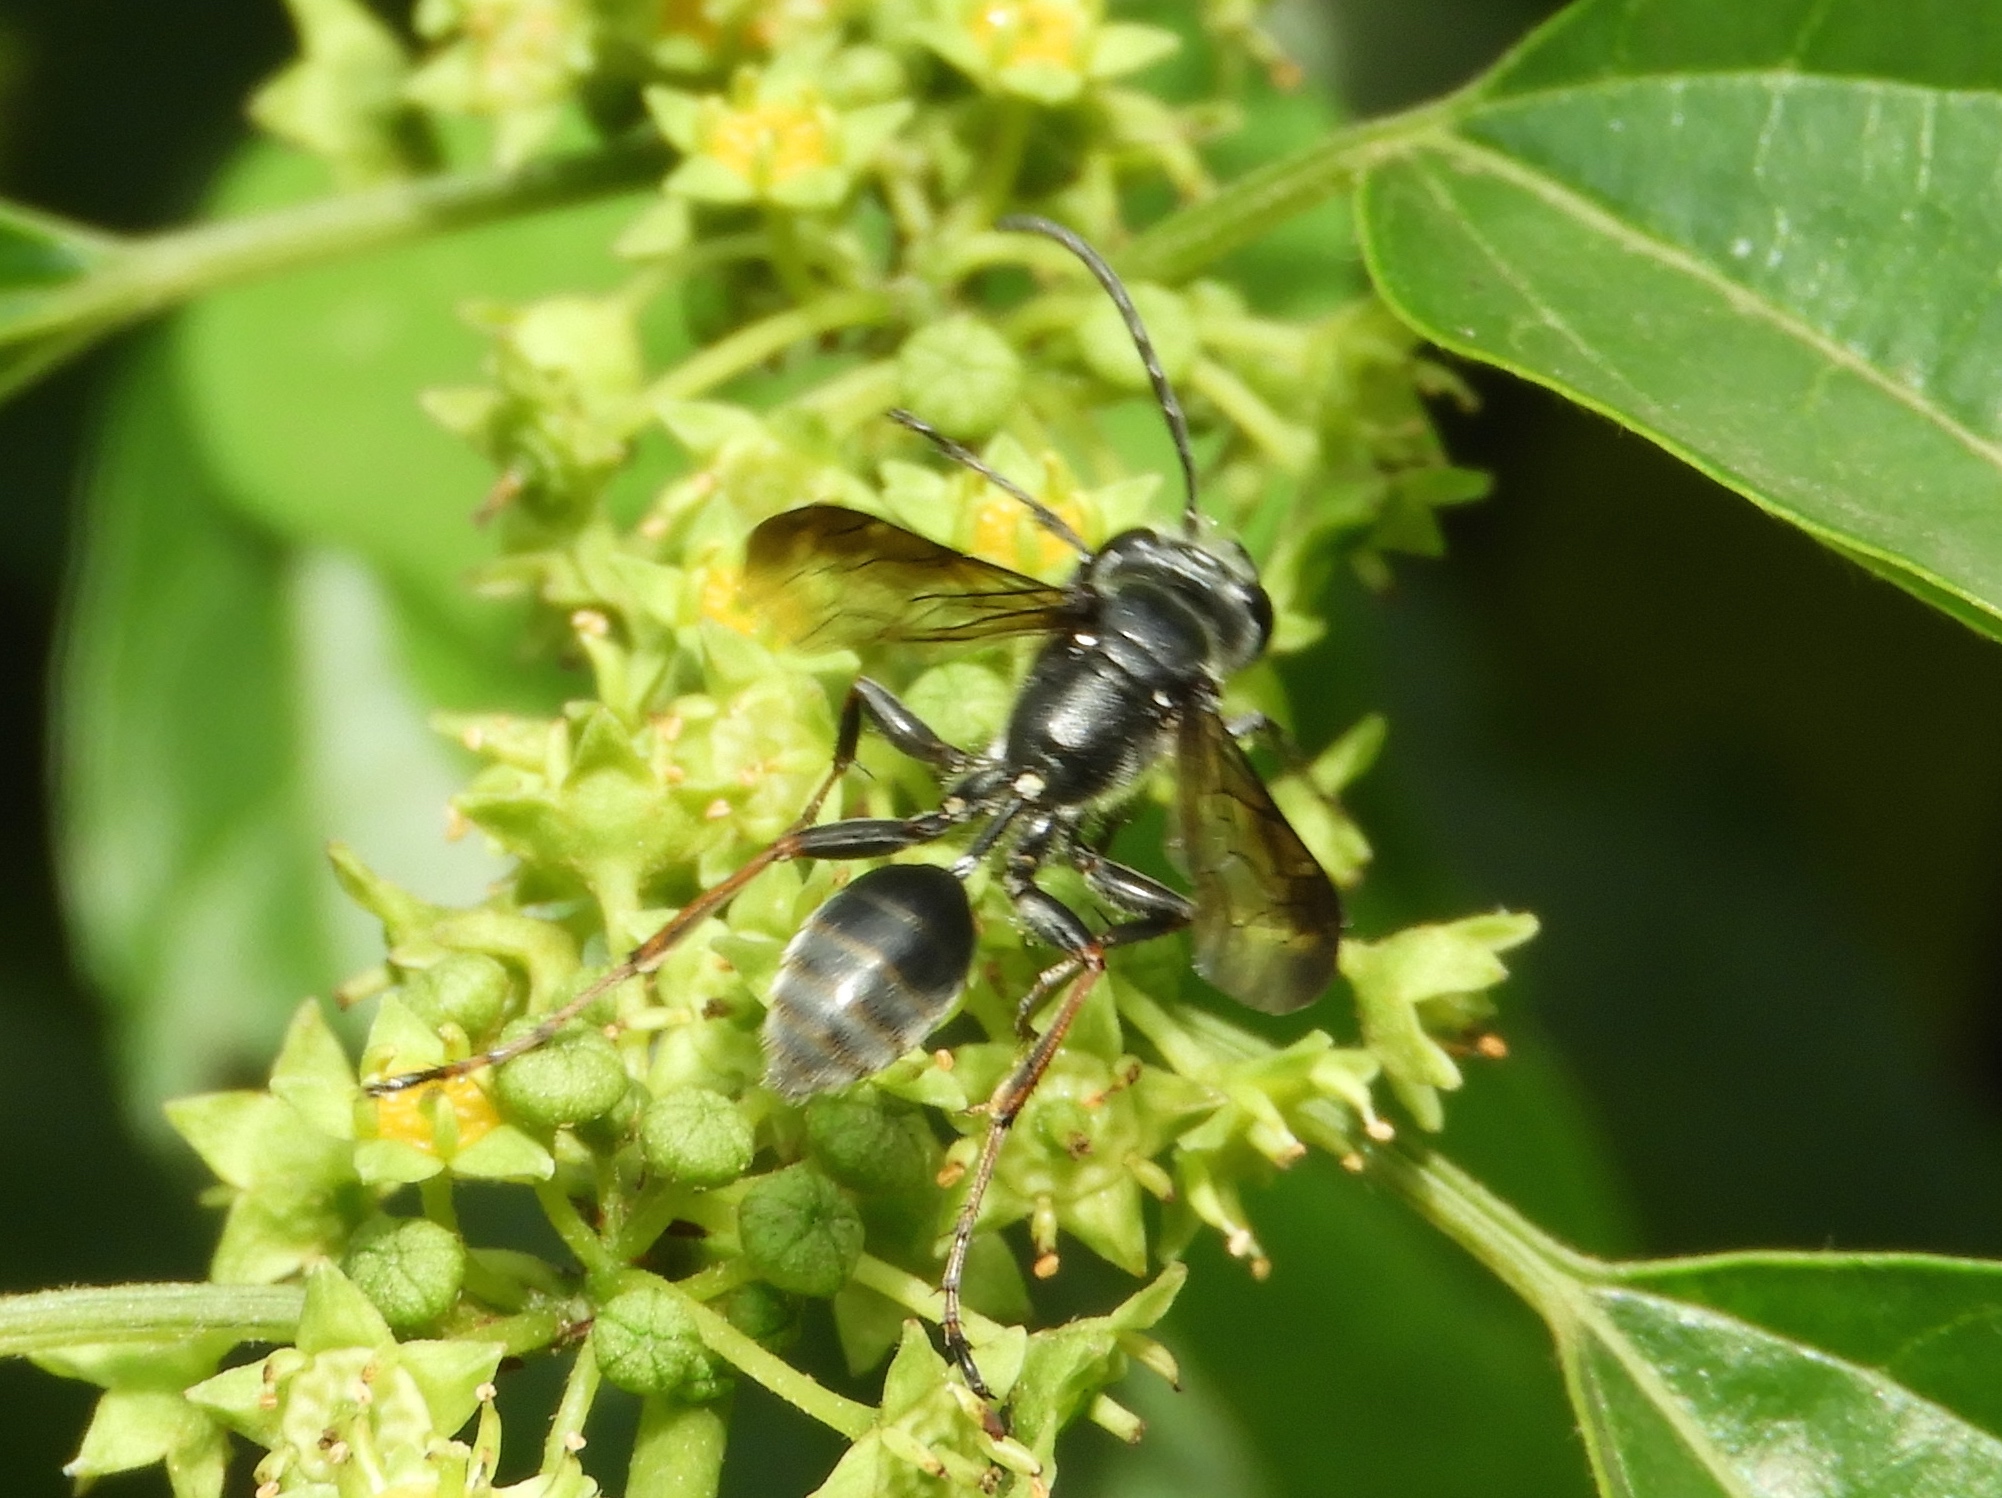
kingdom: Animalia
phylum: Arthropoda
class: Insecta
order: Hymenoptera
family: Sphecidae
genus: Isodontia
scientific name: Isodontia
